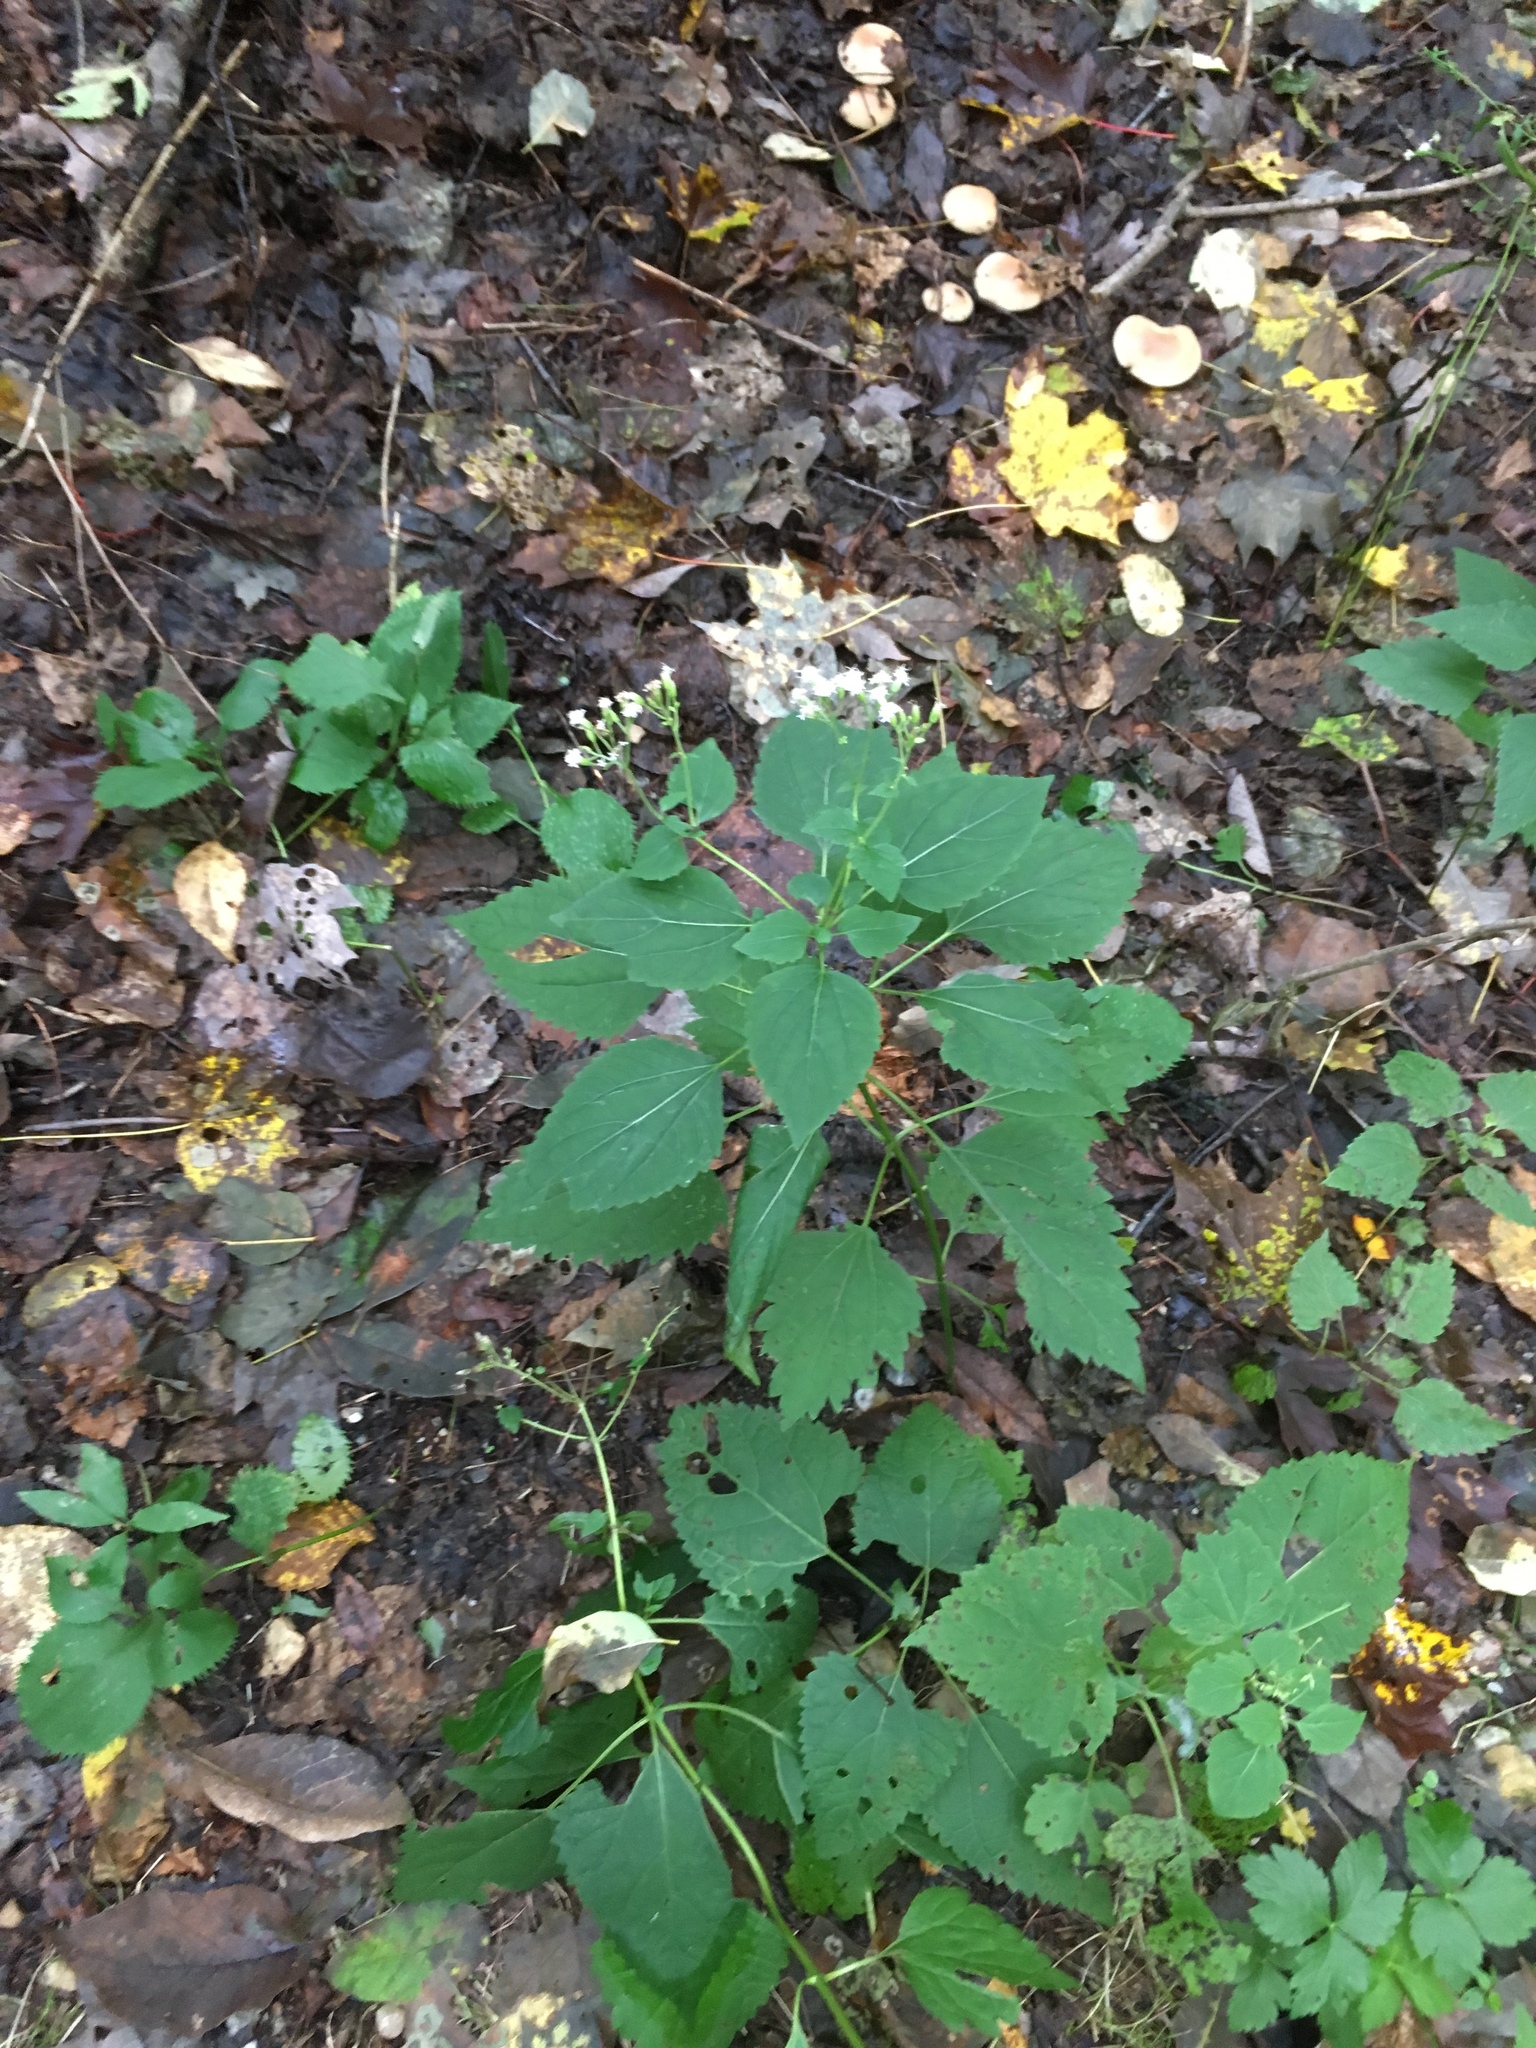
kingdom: Plantae
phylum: Tracheophyta
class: Magnoliopsida
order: Asterales
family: Asteraceae
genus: Ageratina
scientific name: Ageratina altissima
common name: White snakeroot
